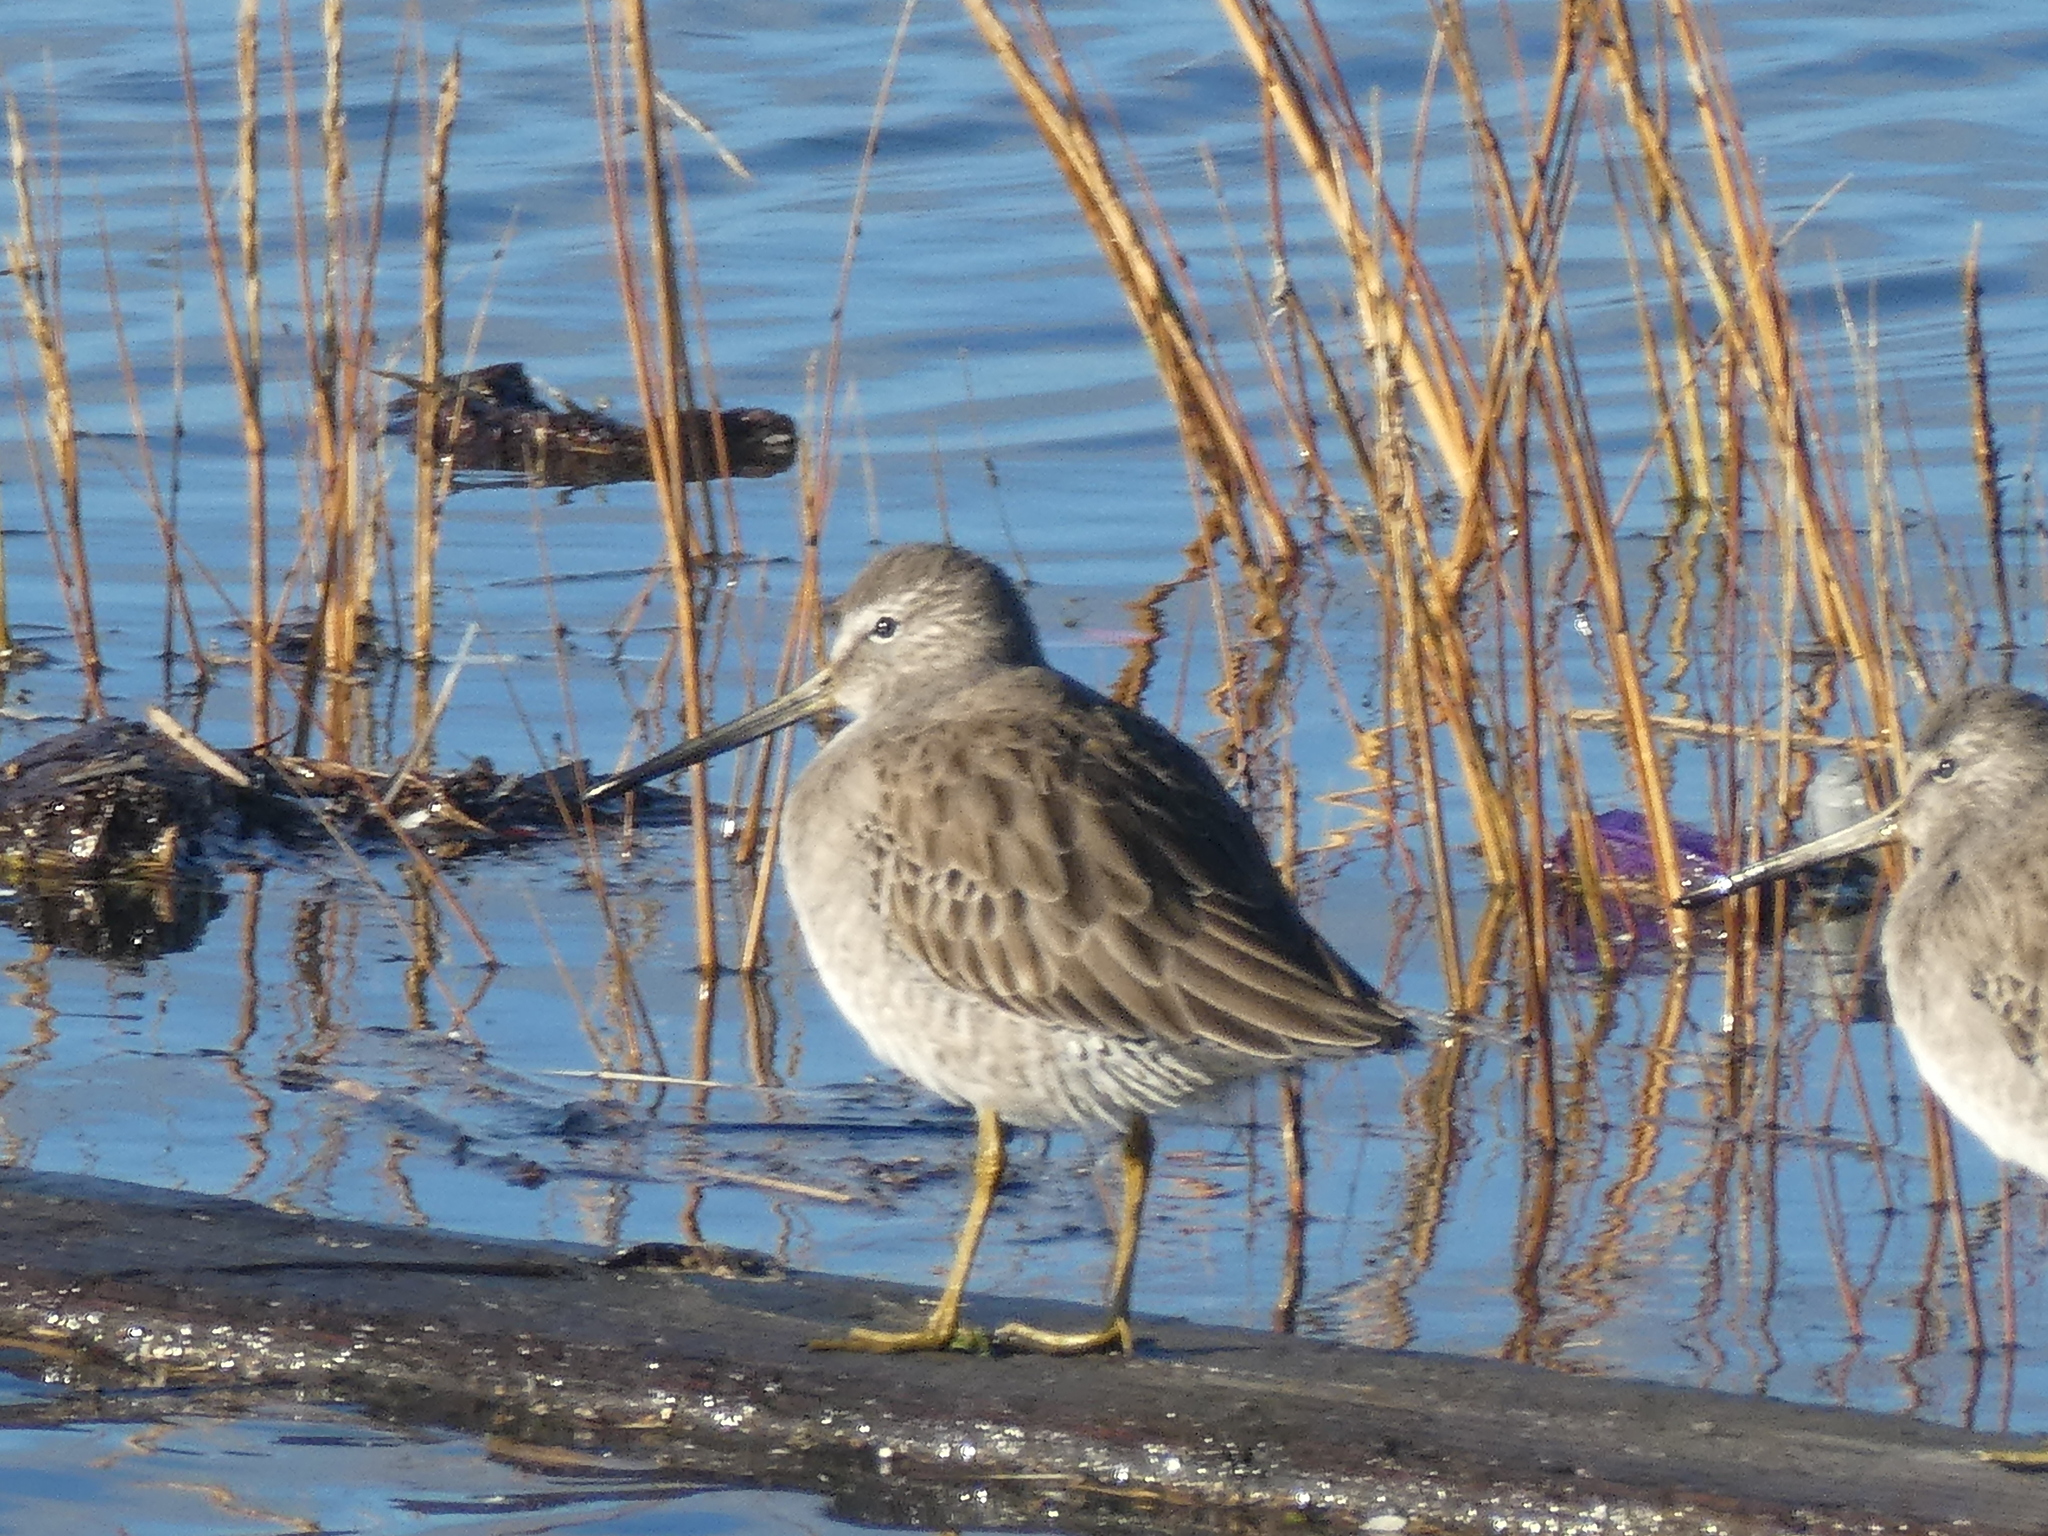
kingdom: Animalia
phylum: Chordata
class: Aves
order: Charadriiformes
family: Scolopacidae
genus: Limnodromus
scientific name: Limnodromus
